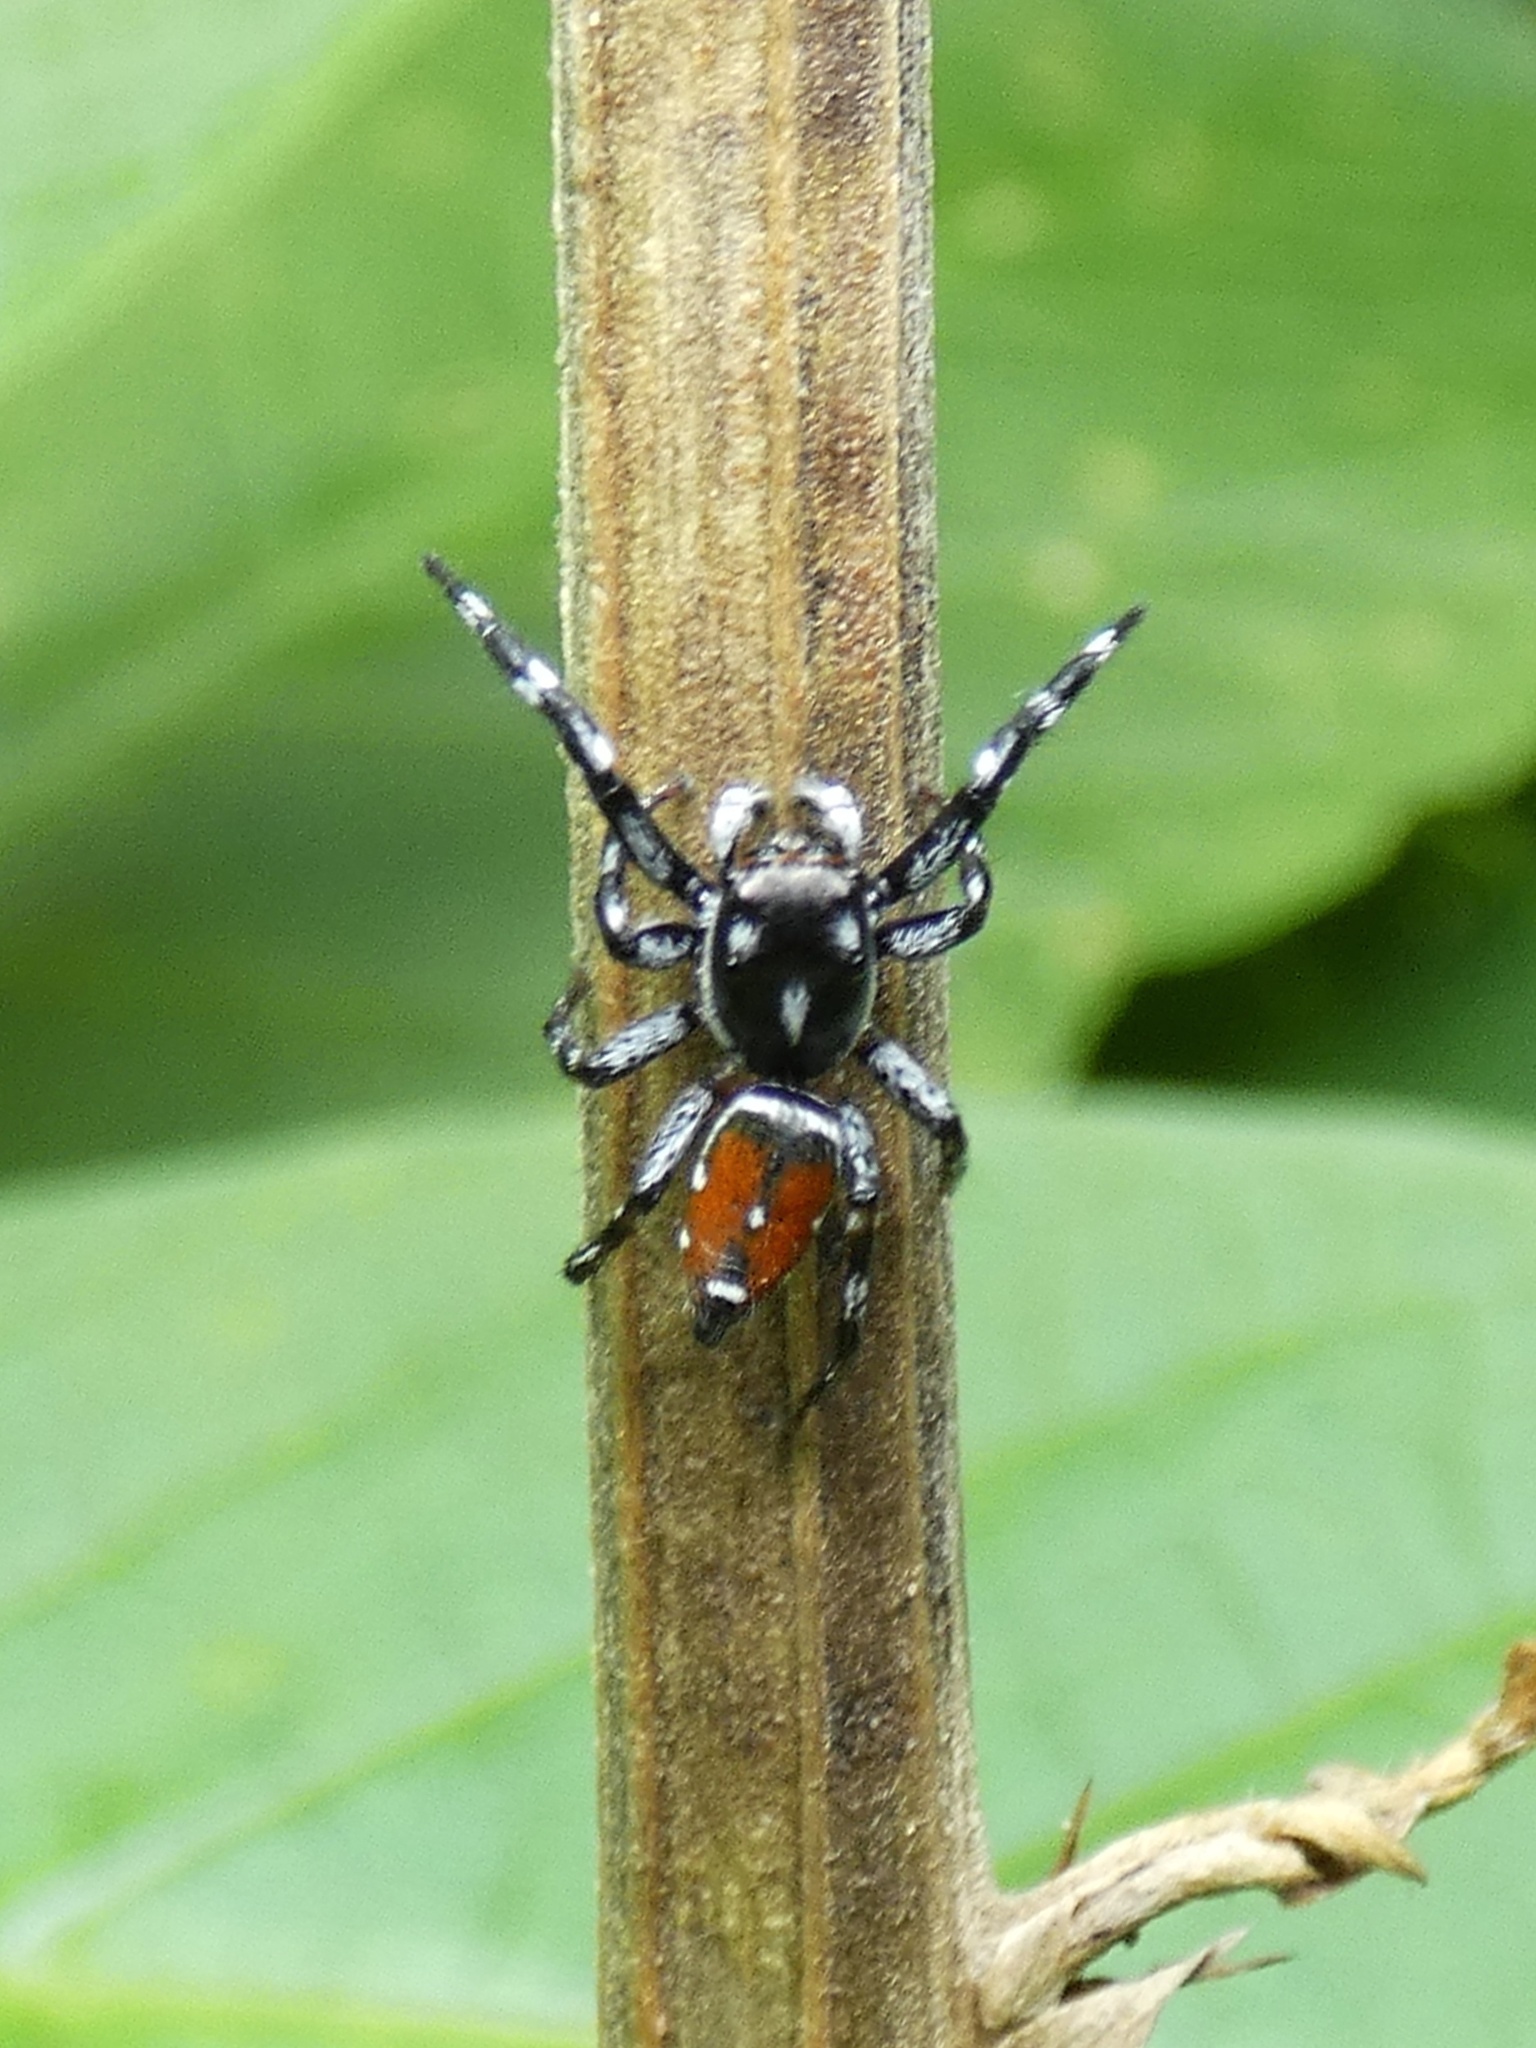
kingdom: Animalia
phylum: Arthropoda
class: Arachnida
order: Araneae
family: Salticidae
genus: Pachomius
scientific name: Pachomius dybowskii
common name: Jumping spiders
